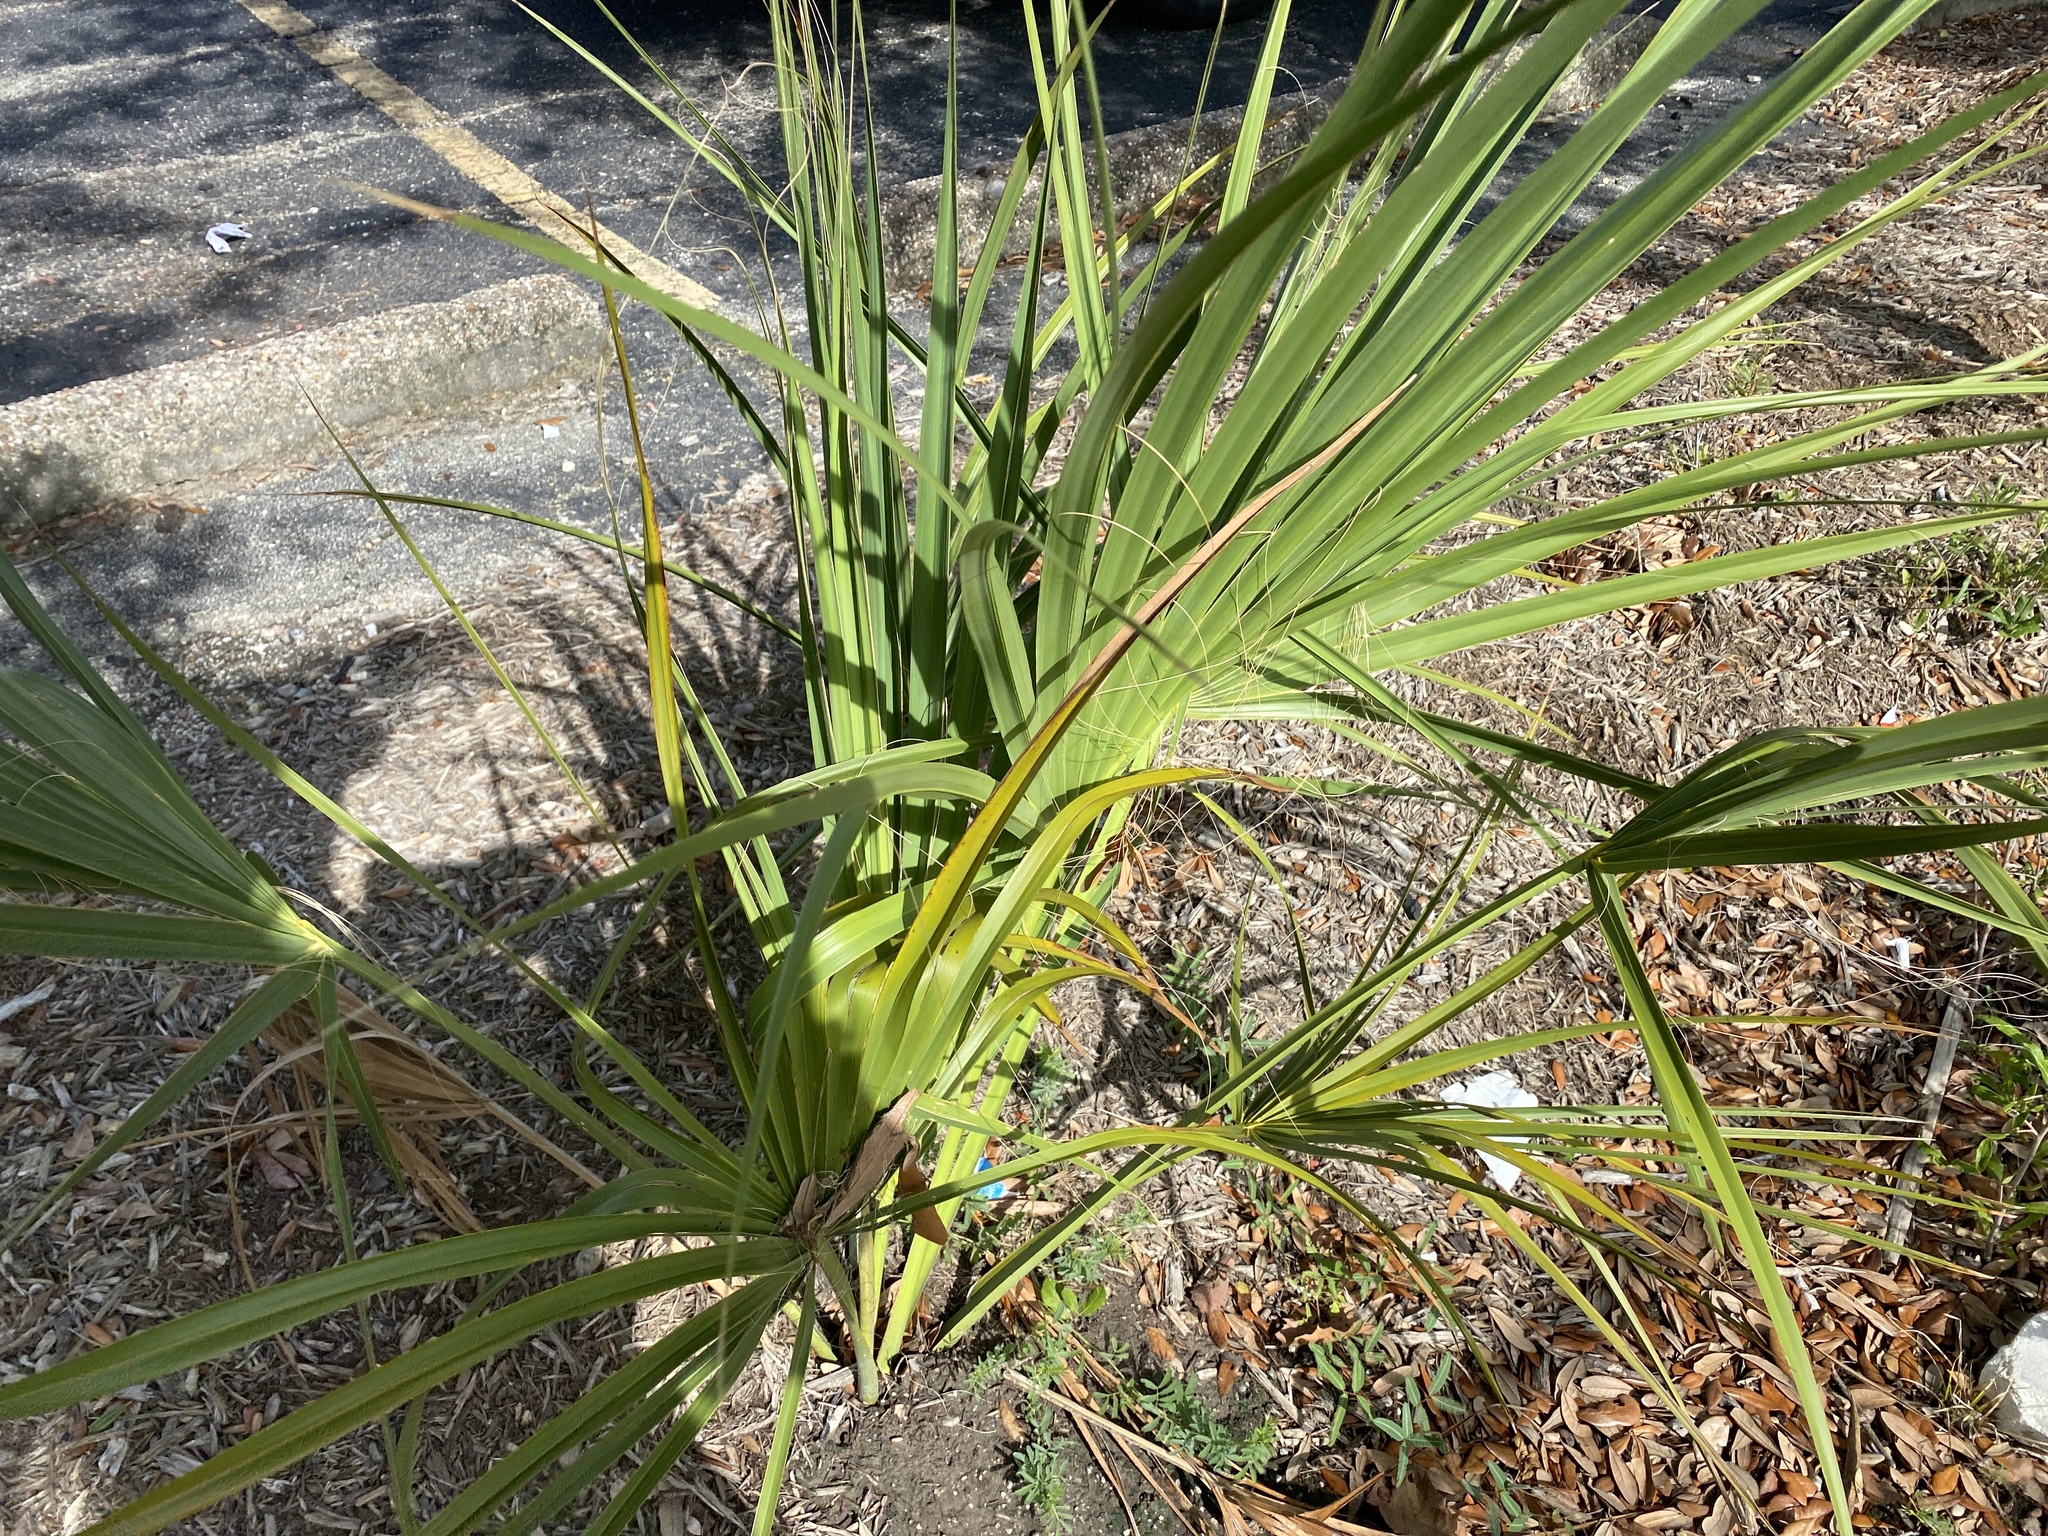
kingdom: Plantae
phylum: Tracheophyta
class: Liliopsida
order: Arecales
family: Arecaceae
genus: Sabal
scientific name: Sabal minor
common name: Dwarf palmetto
